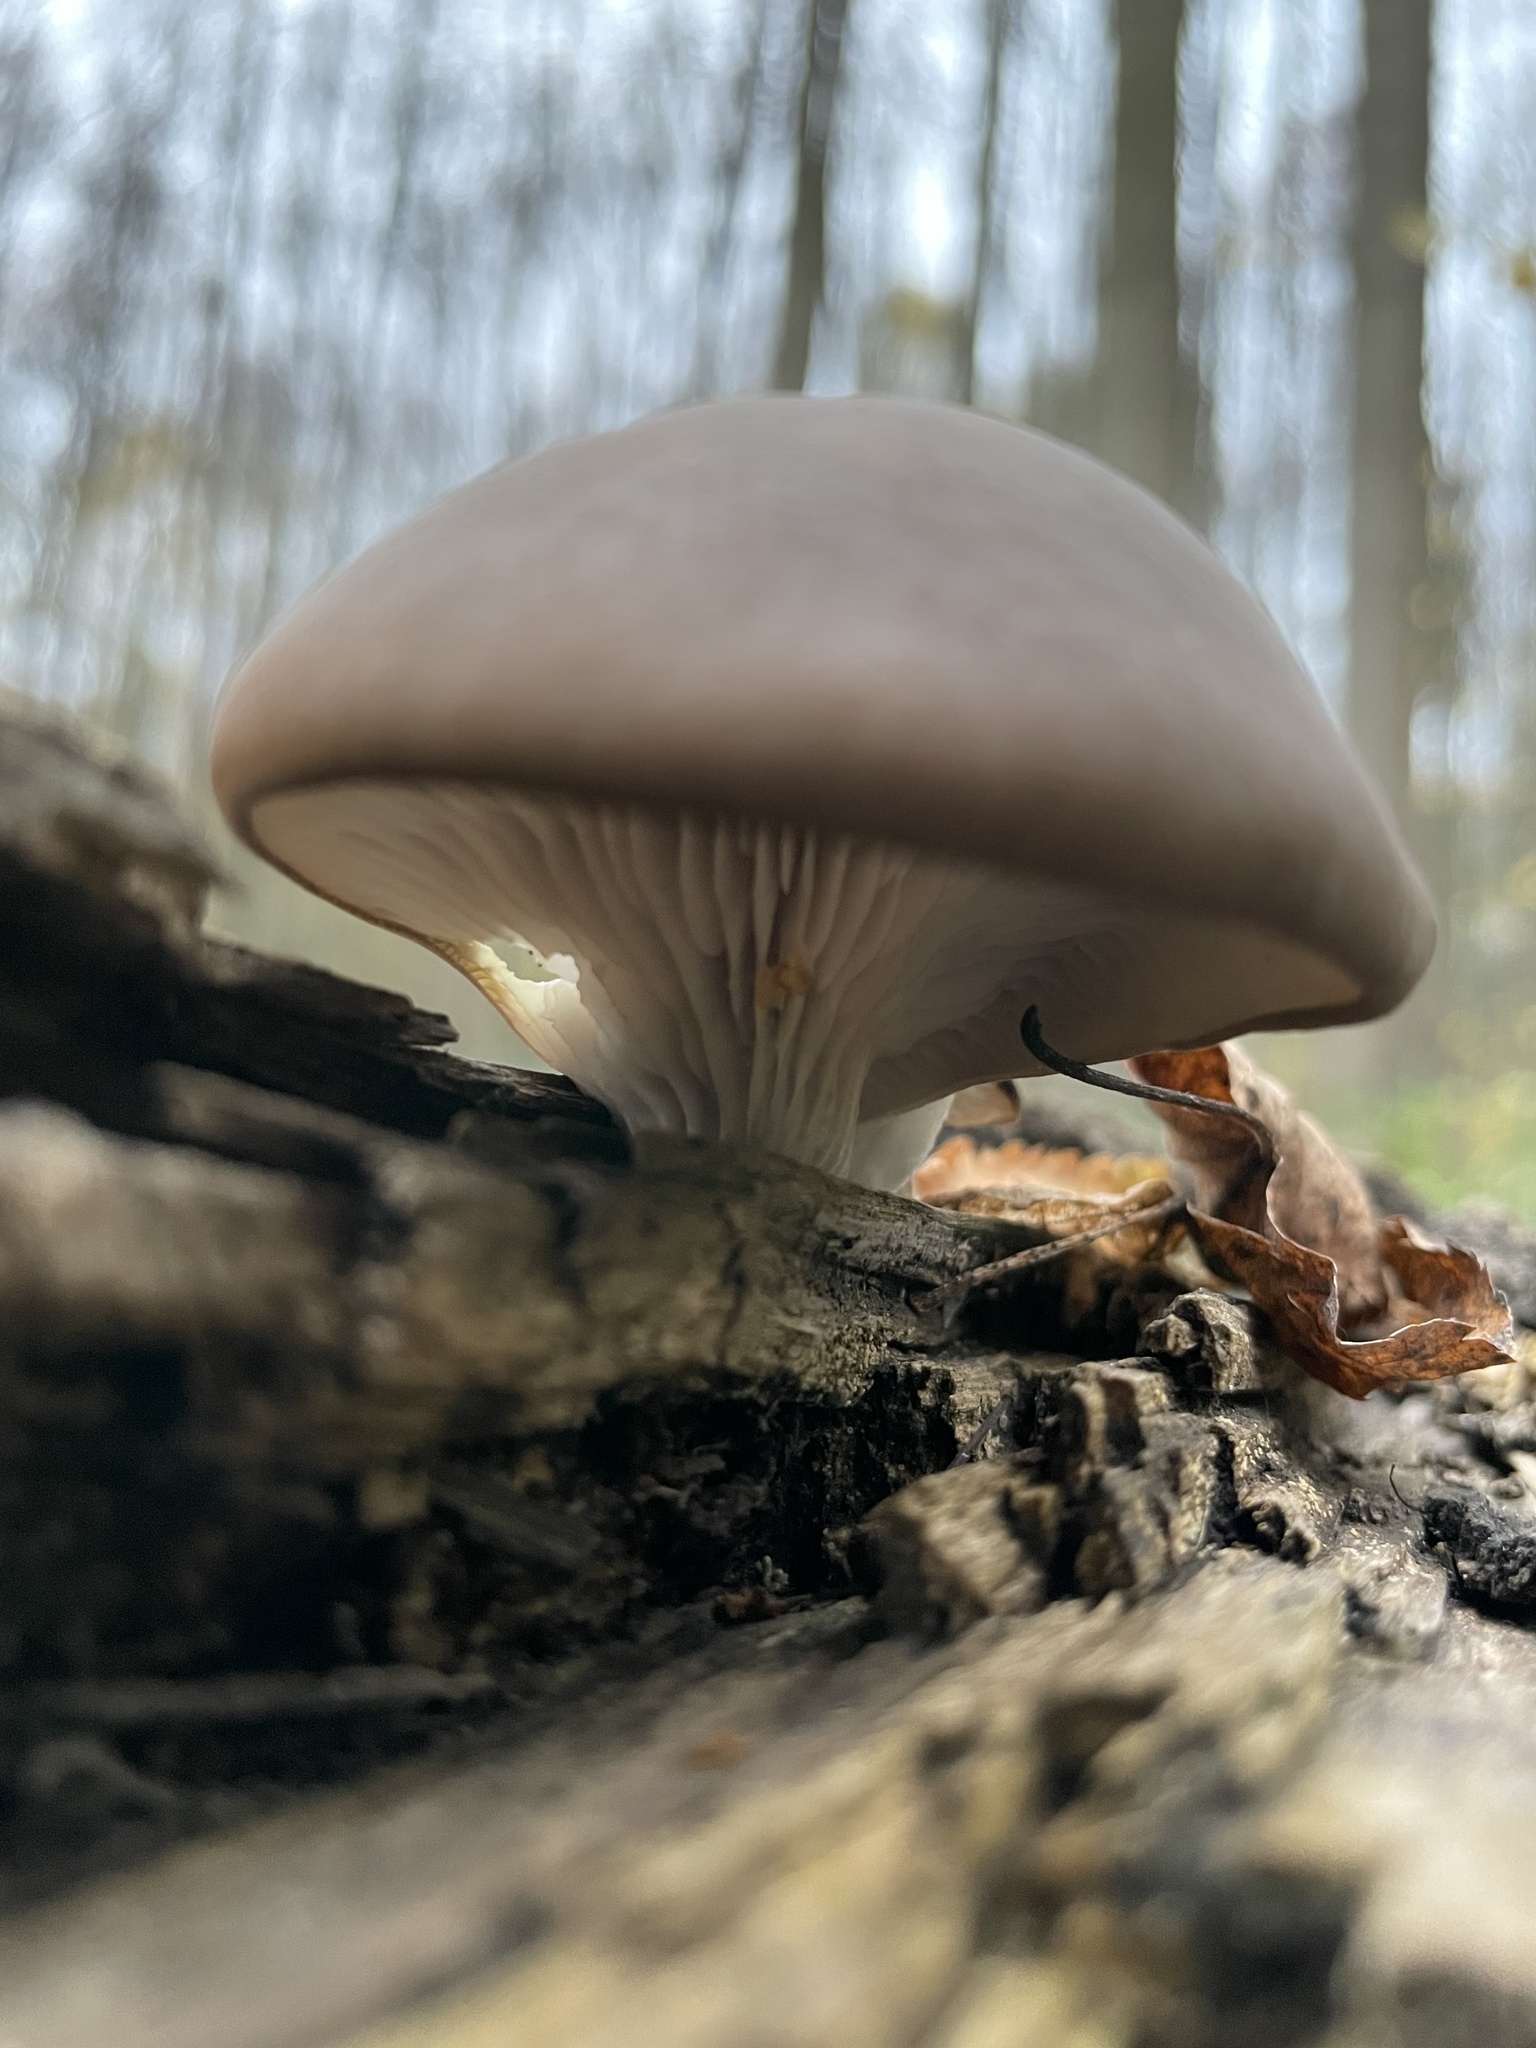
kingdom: Fungi
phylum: Basidiomycota
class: Agaricomycetes
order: Agaricales
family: Pleurotaceae
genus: Pleurotus
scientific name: Pleurotus ostreatus
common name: Oyster mushroom
